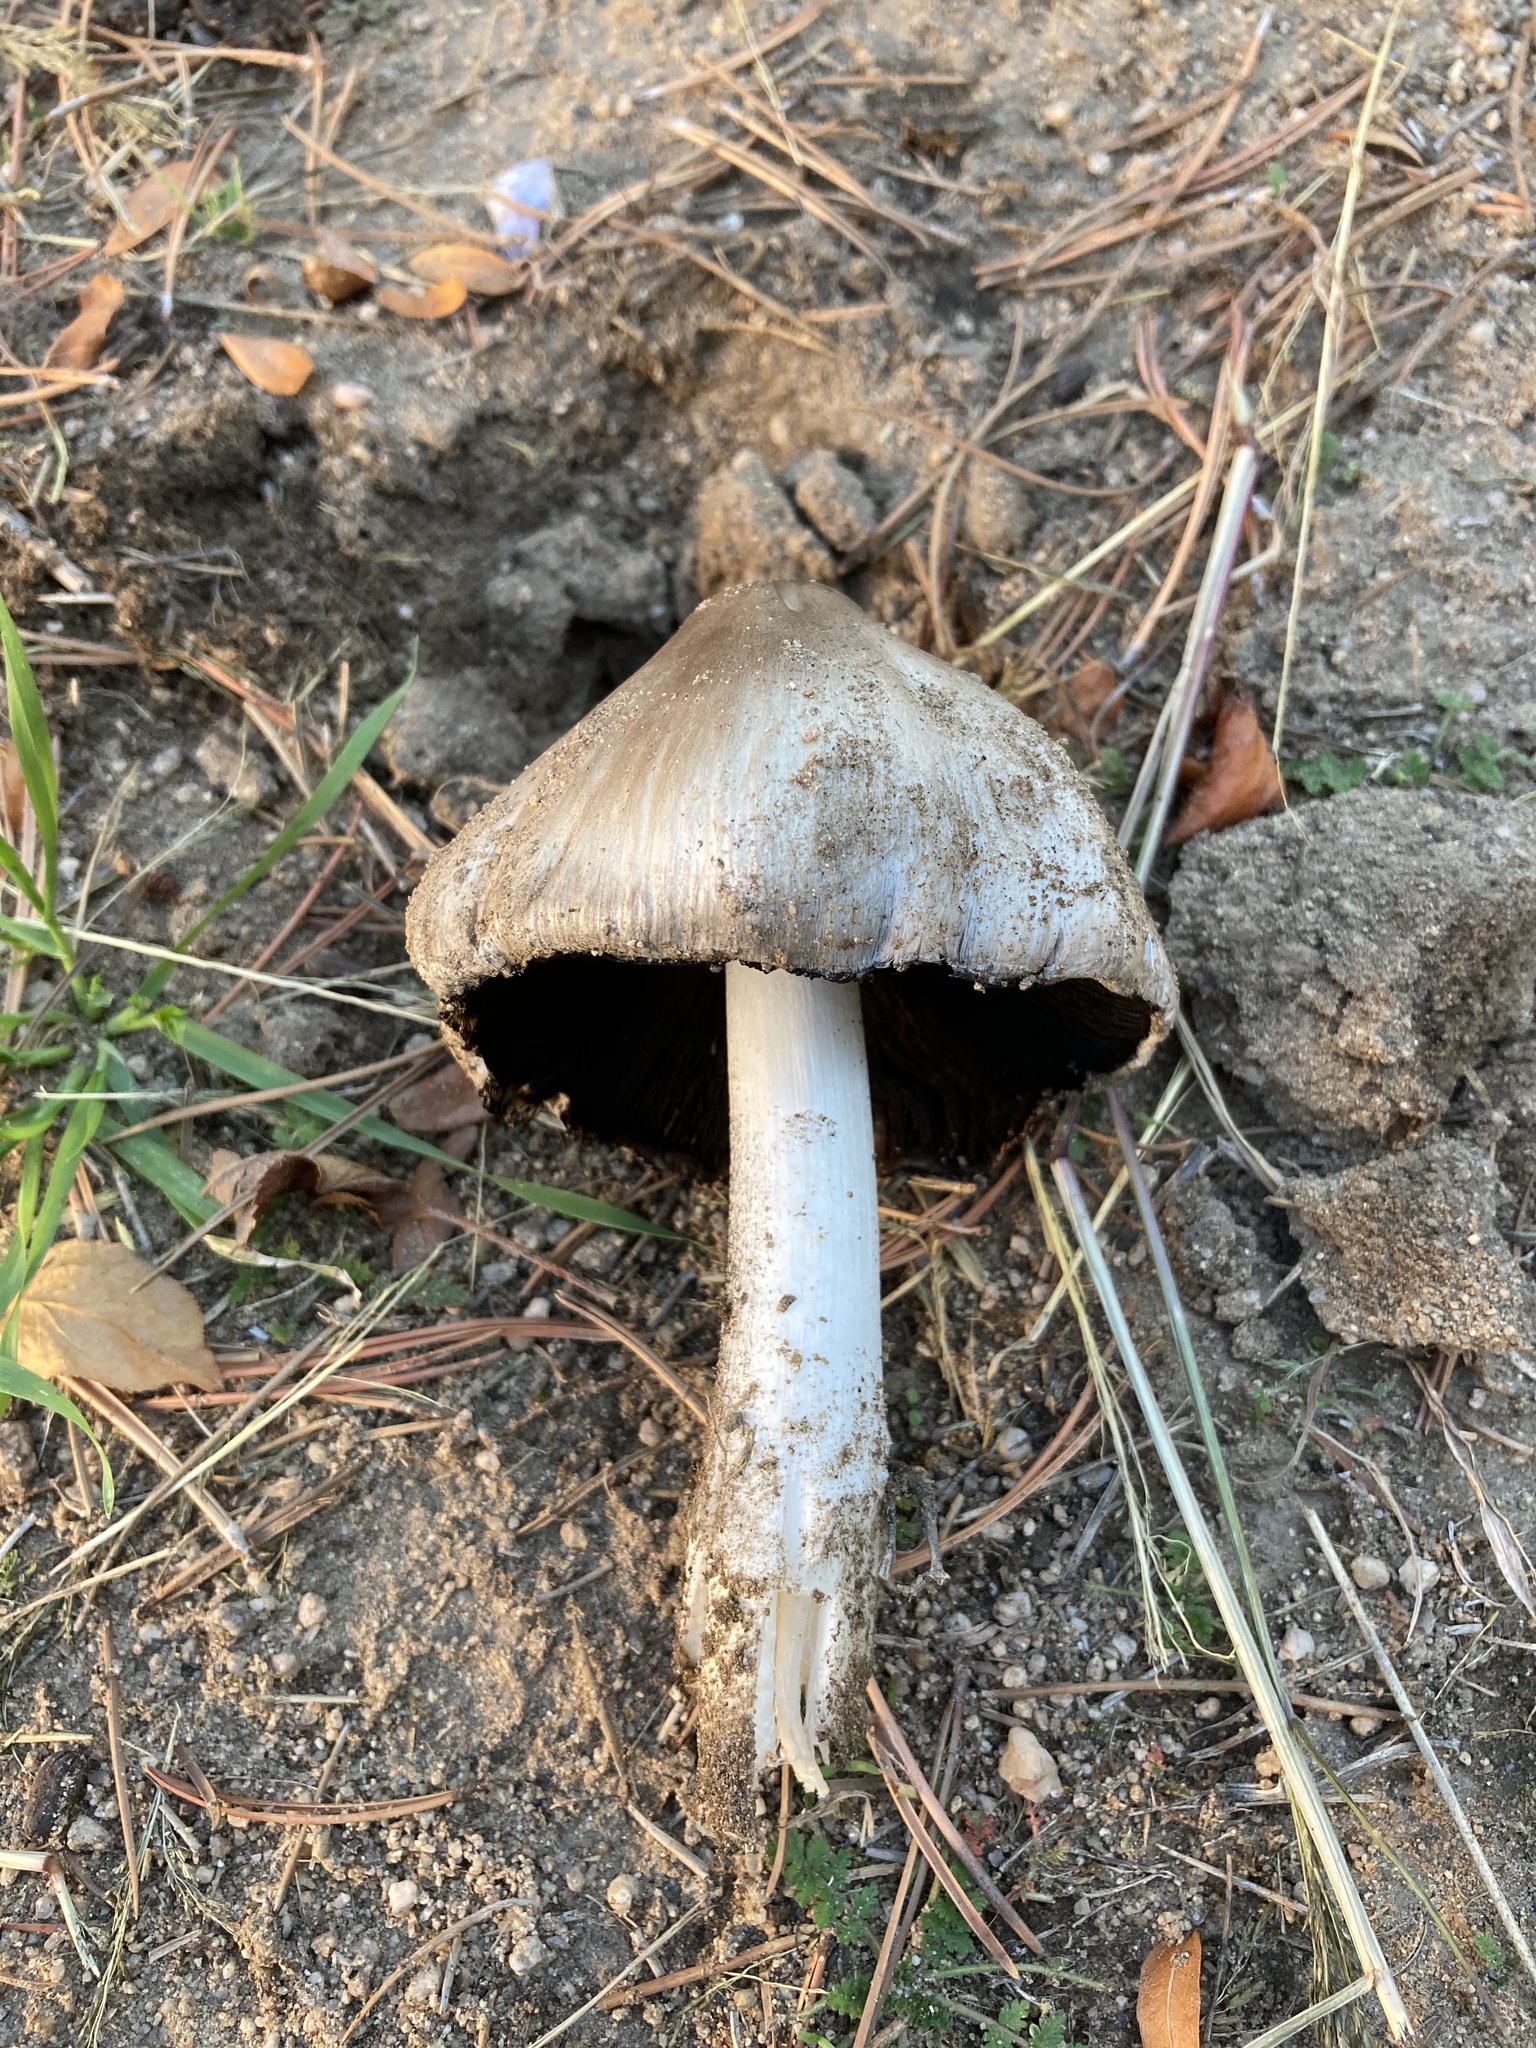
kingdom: Fungi
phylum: Basidiomycota
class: Agaricomycetes
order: Agaricales
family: Psathyrellaceae
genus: Coprinopsis
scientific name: Coprinopsis atramentaria
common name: Common ink-cap
